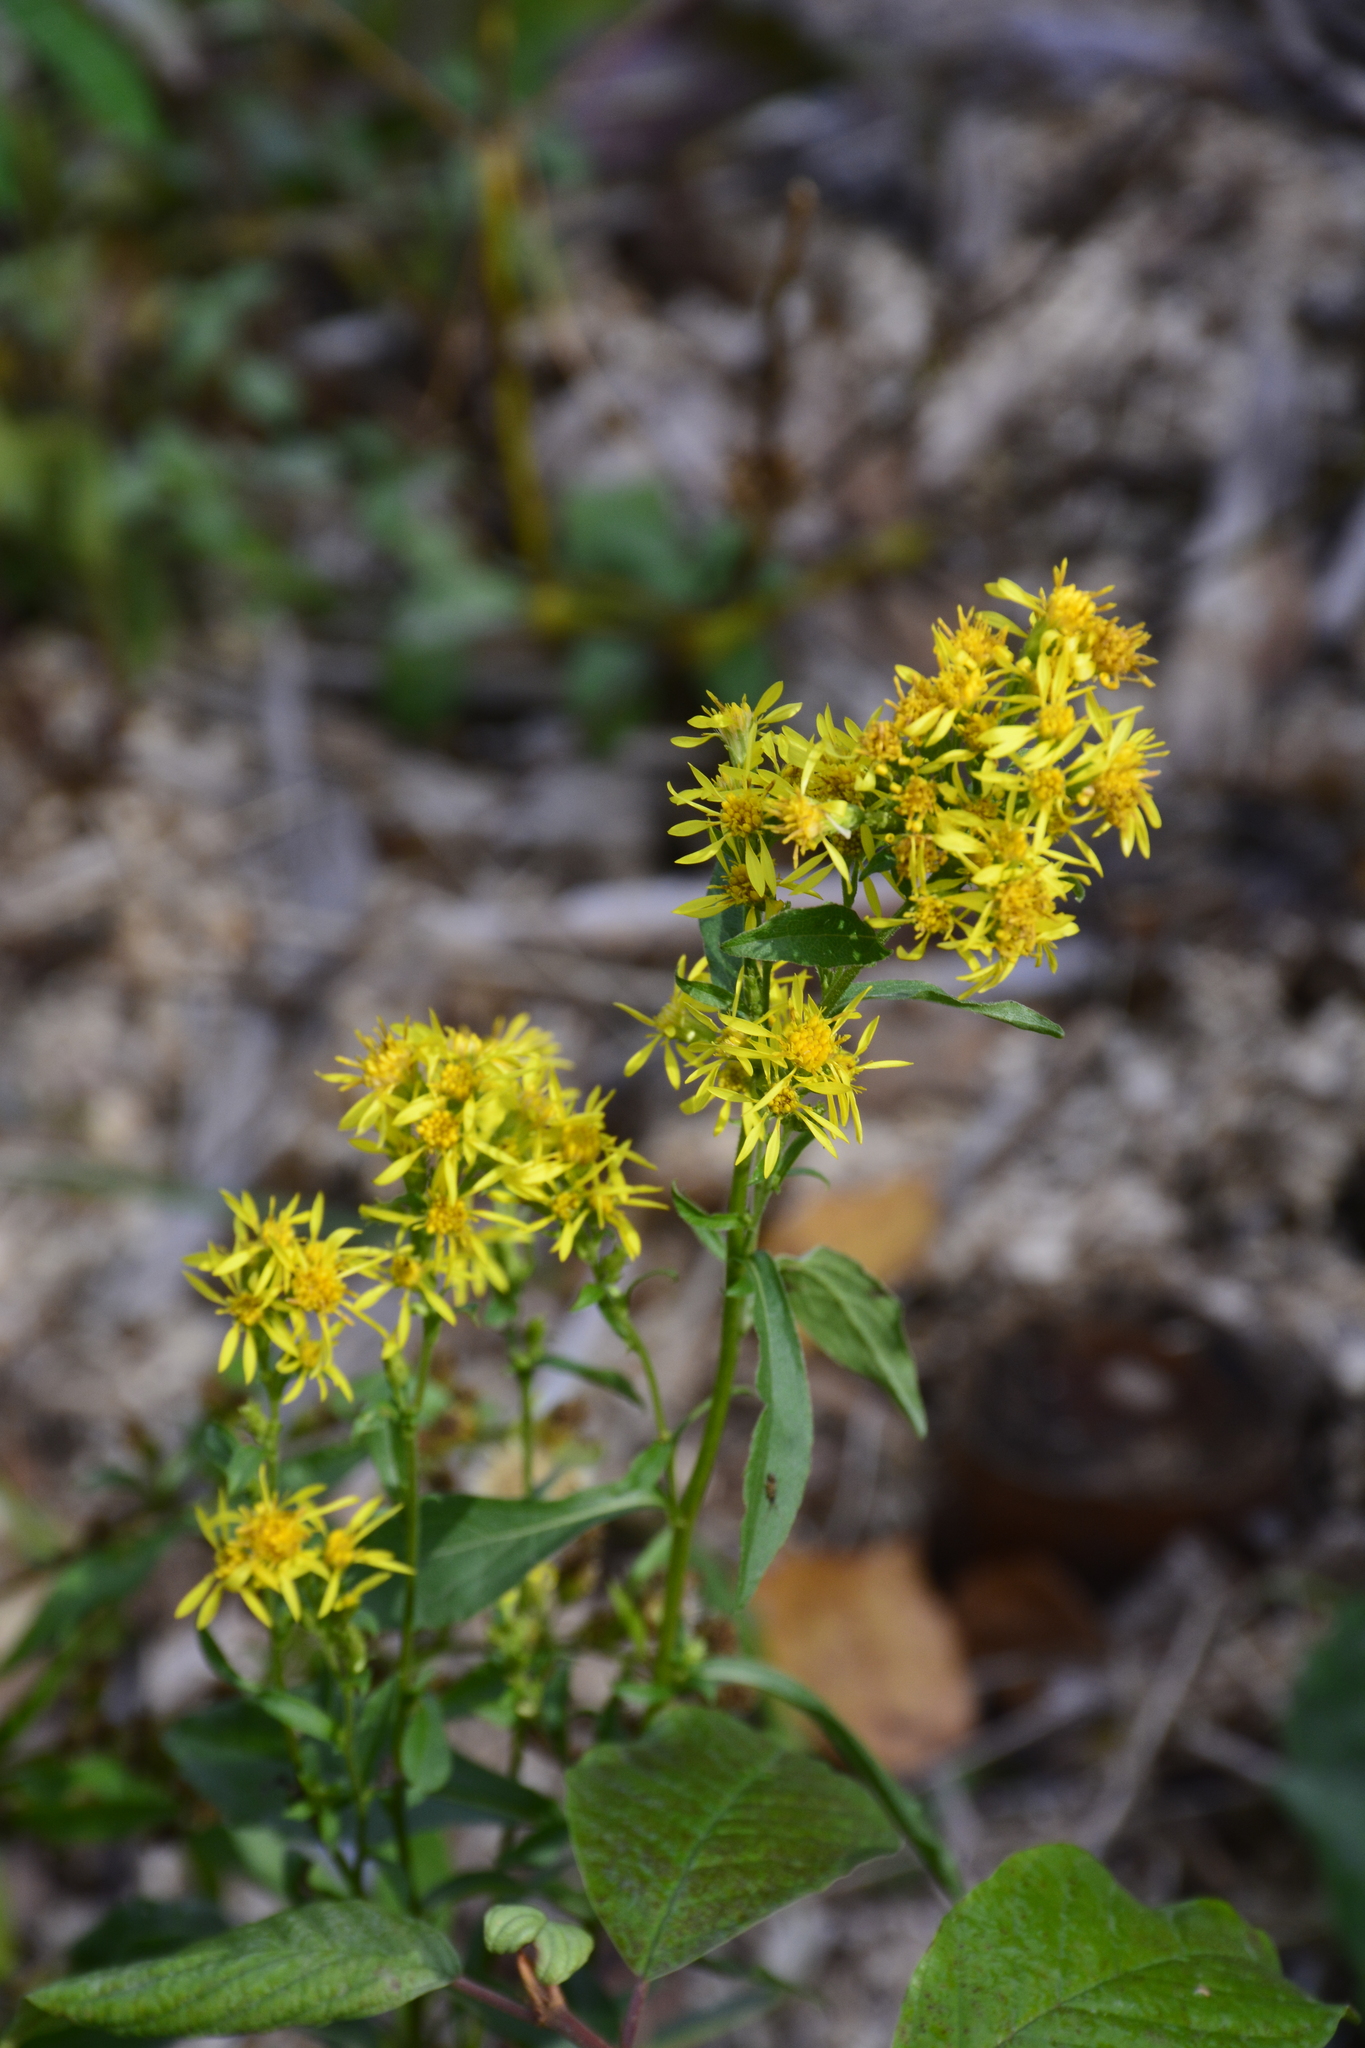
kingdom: Plantae
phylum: Tracheophyta
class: Magnoliopsida
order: Asterales
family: Asteraceae
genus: Solidago
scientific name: Solidago virgaurea
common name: Goldenrod
